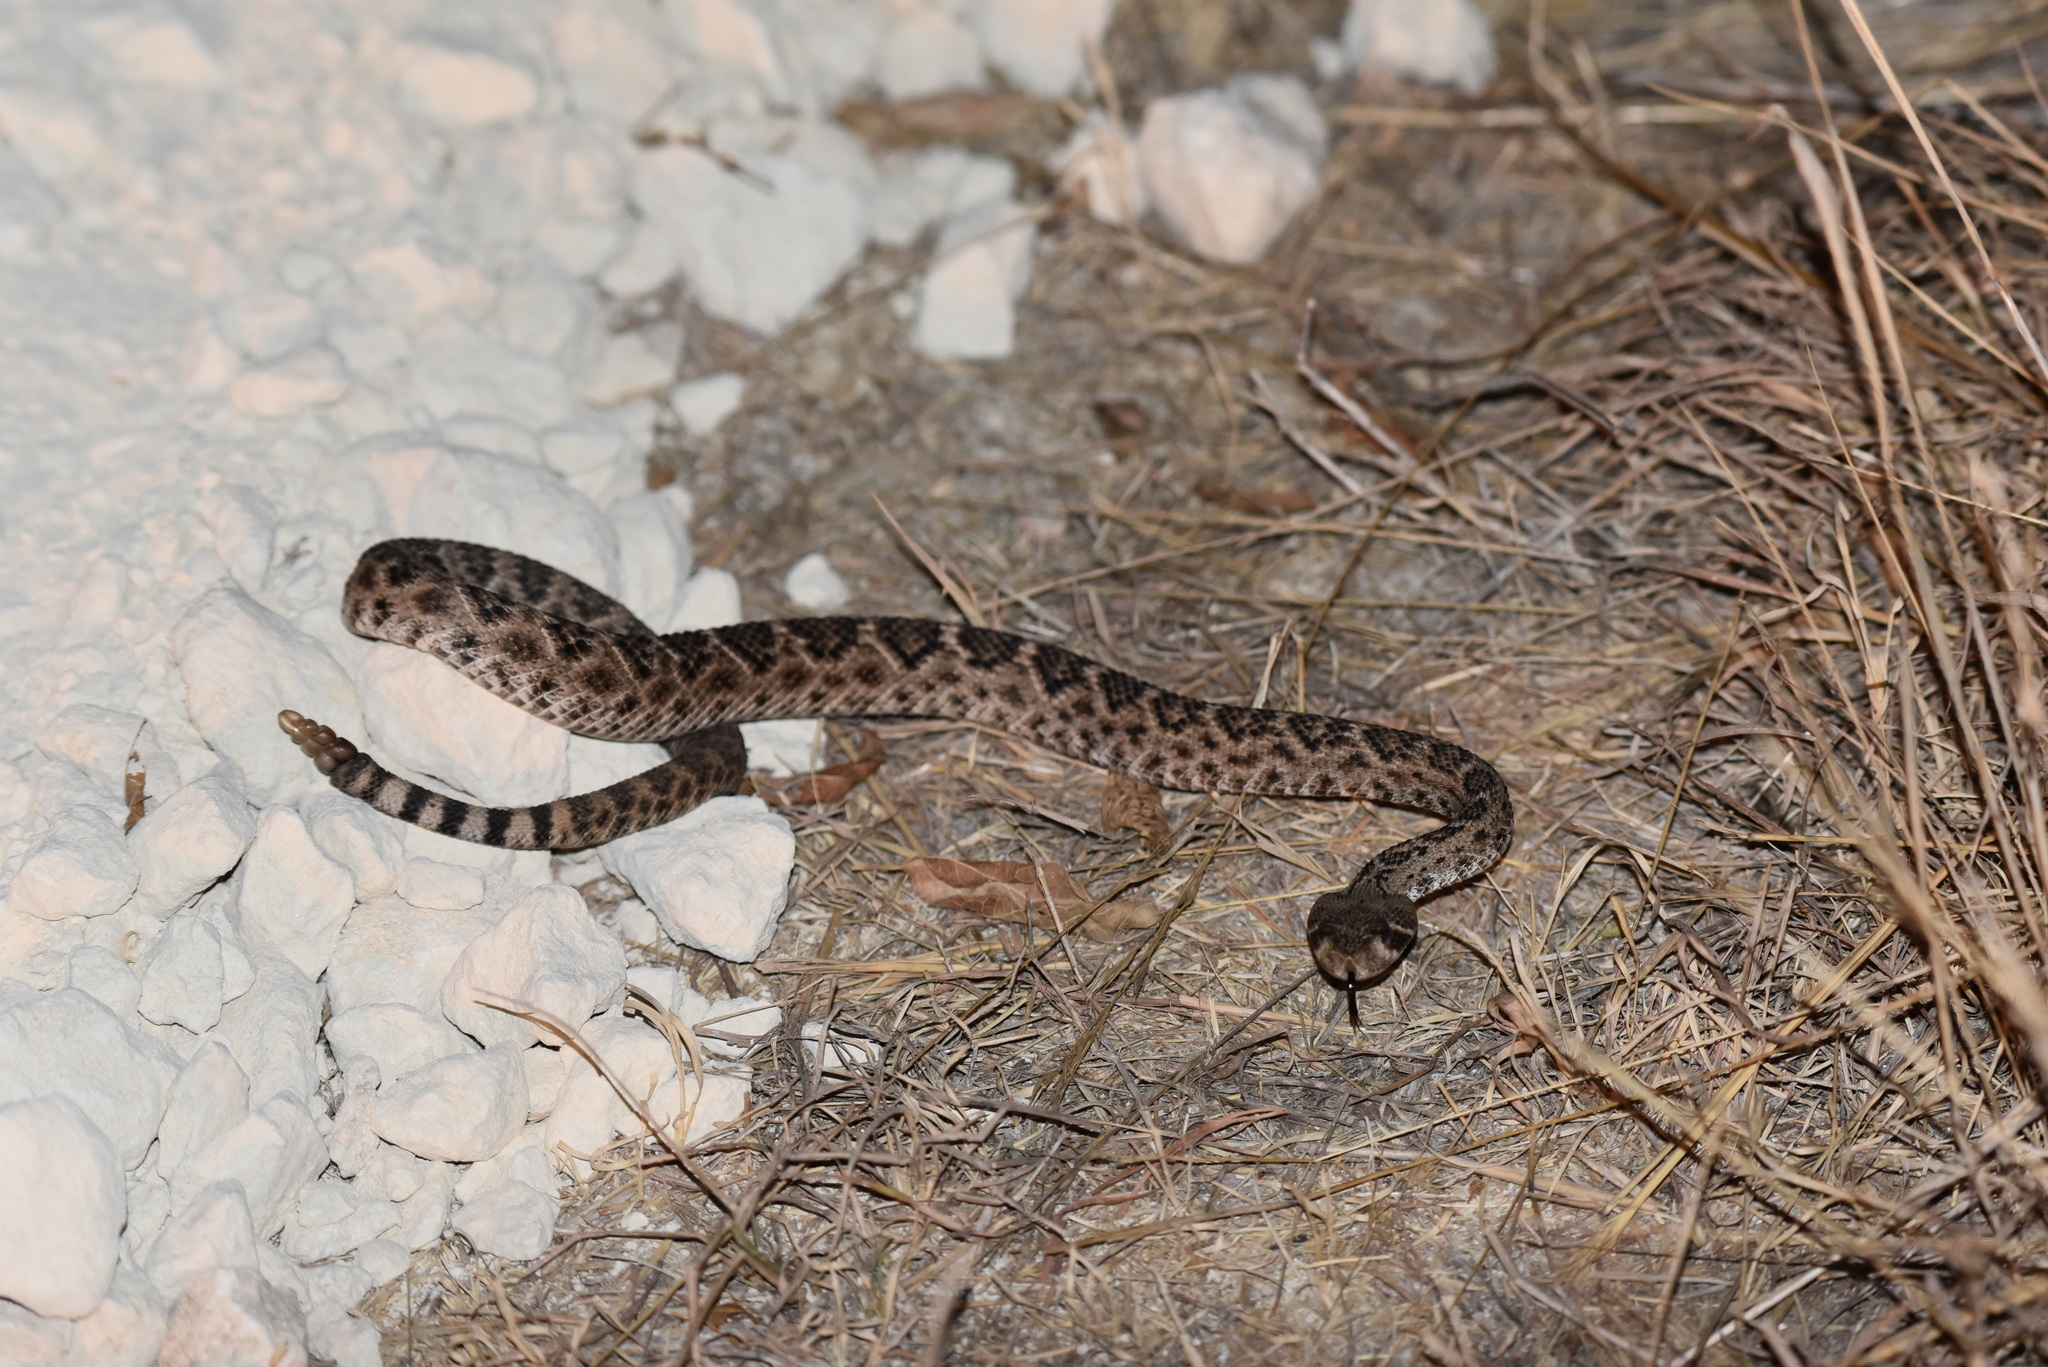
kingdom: Animalia
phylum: Chordata
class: Squamata
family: Viperidae
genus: Crotalus
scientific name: Crotalus atrox
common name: Western diamond-backed rattlesnake
